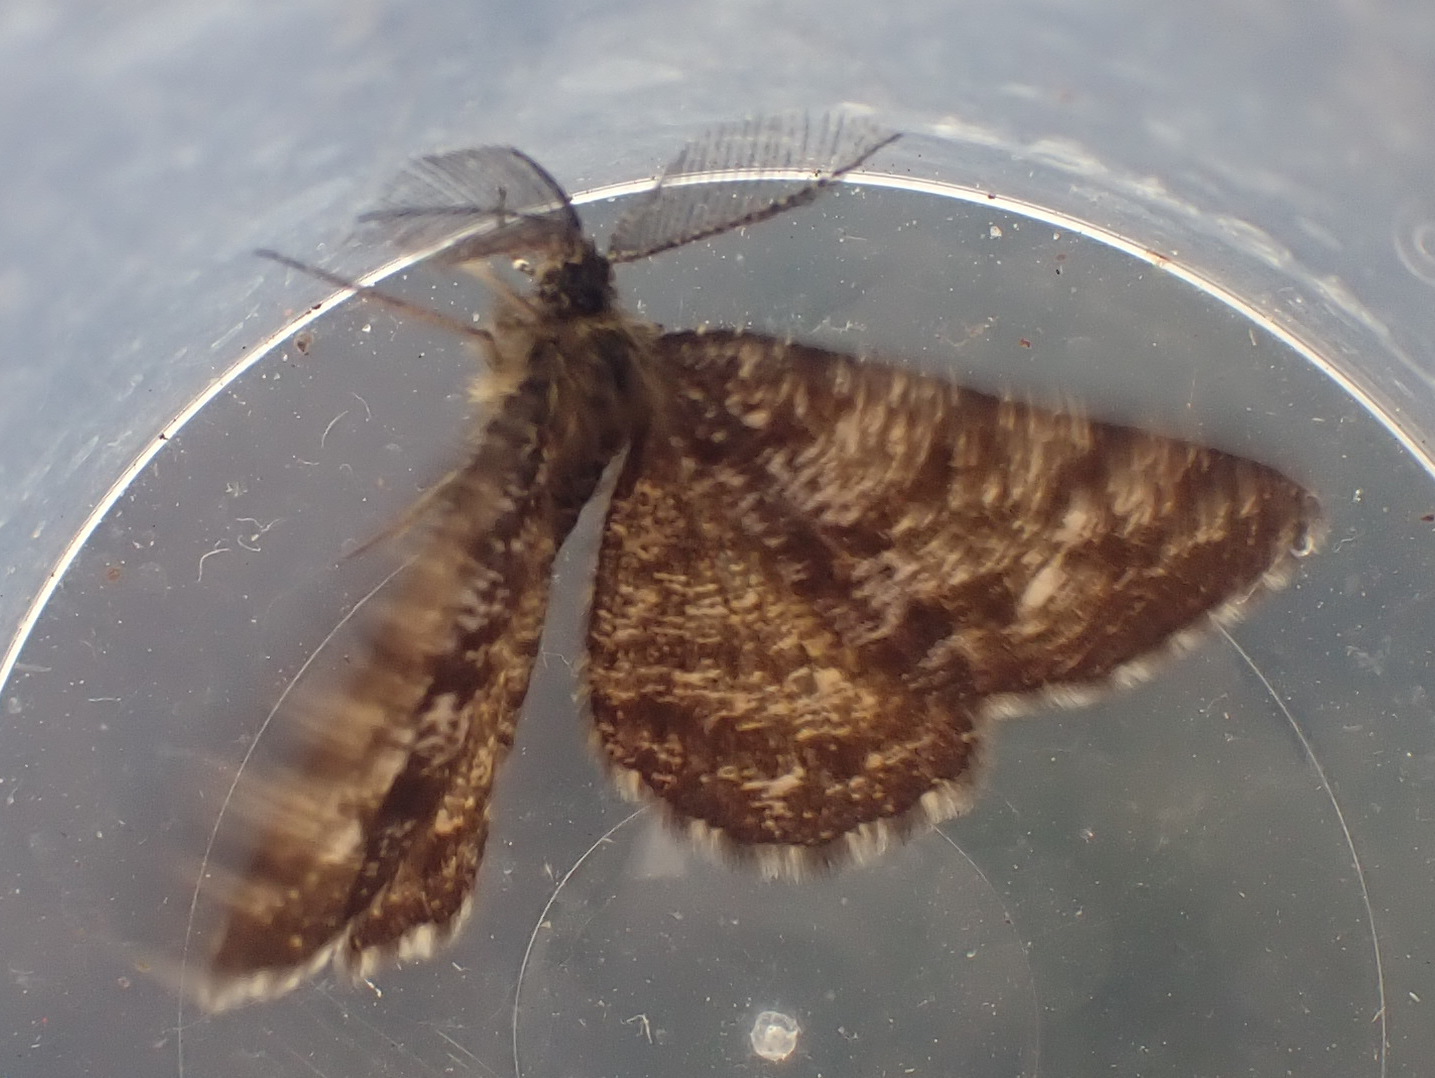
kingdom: Animalia
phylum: Arthropoda
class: Insecta
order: Lepidoptera
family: Geometridae
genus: Ematurga
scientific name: Ematurga atomaria
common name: Common heath
